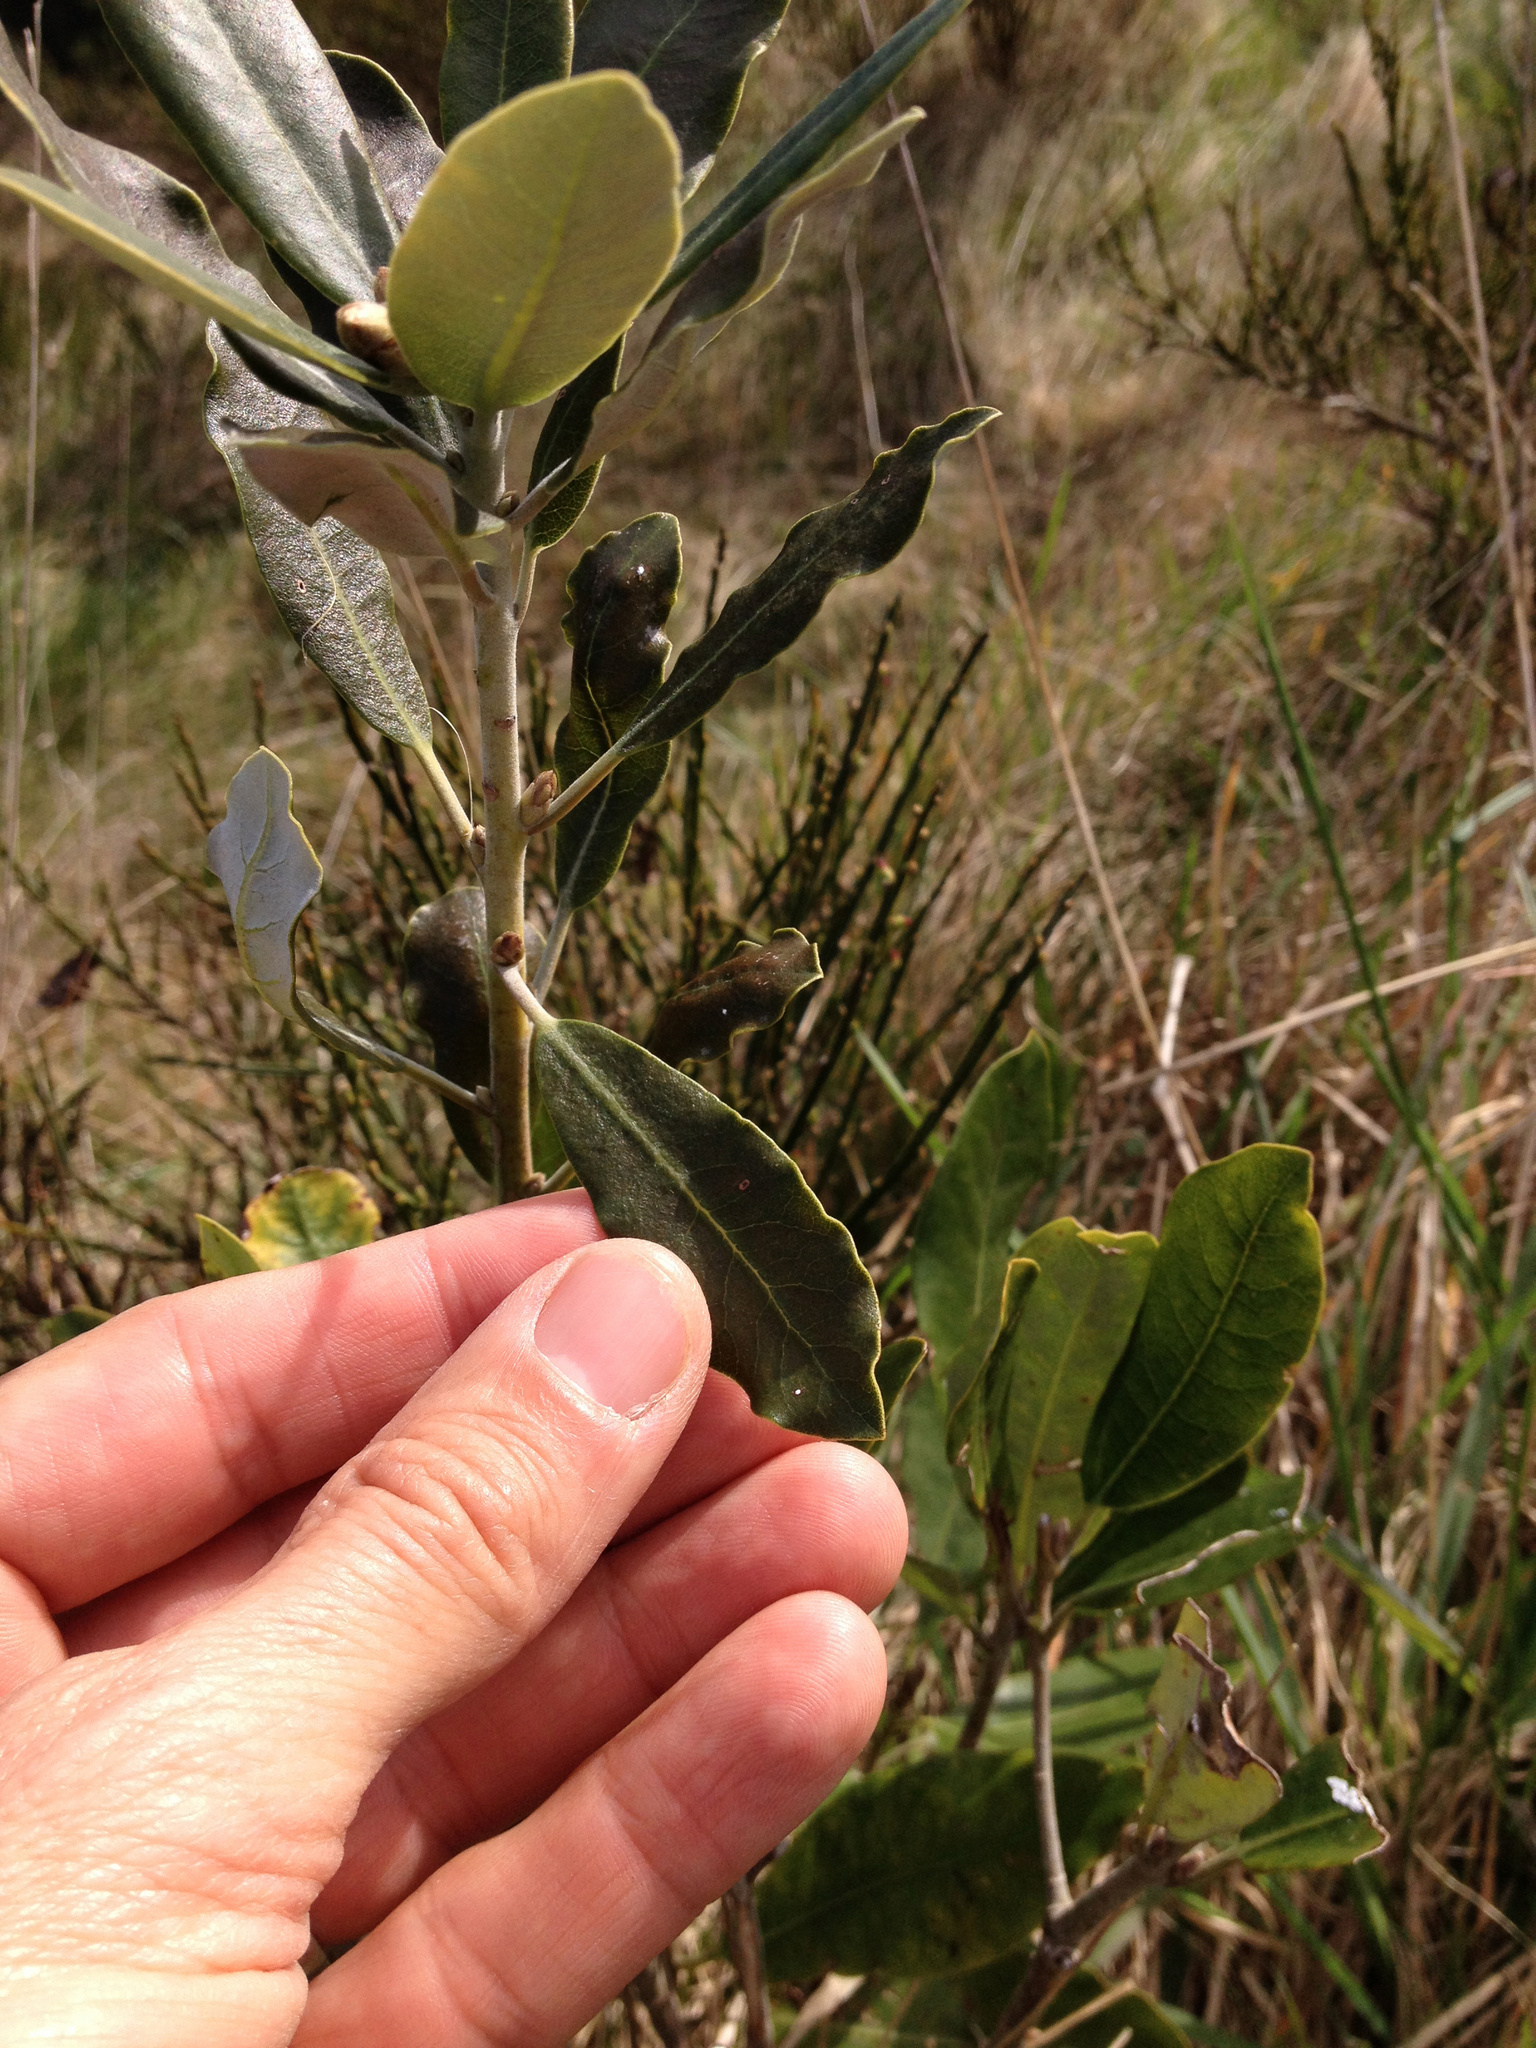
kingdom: Plantae
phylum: Tracheophyta
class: Magnoliopsida
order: Apiales
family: Pittosporaceae
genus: Pittosporum
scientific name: Pittosporum ralphii
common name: Ralph's desertwillow
